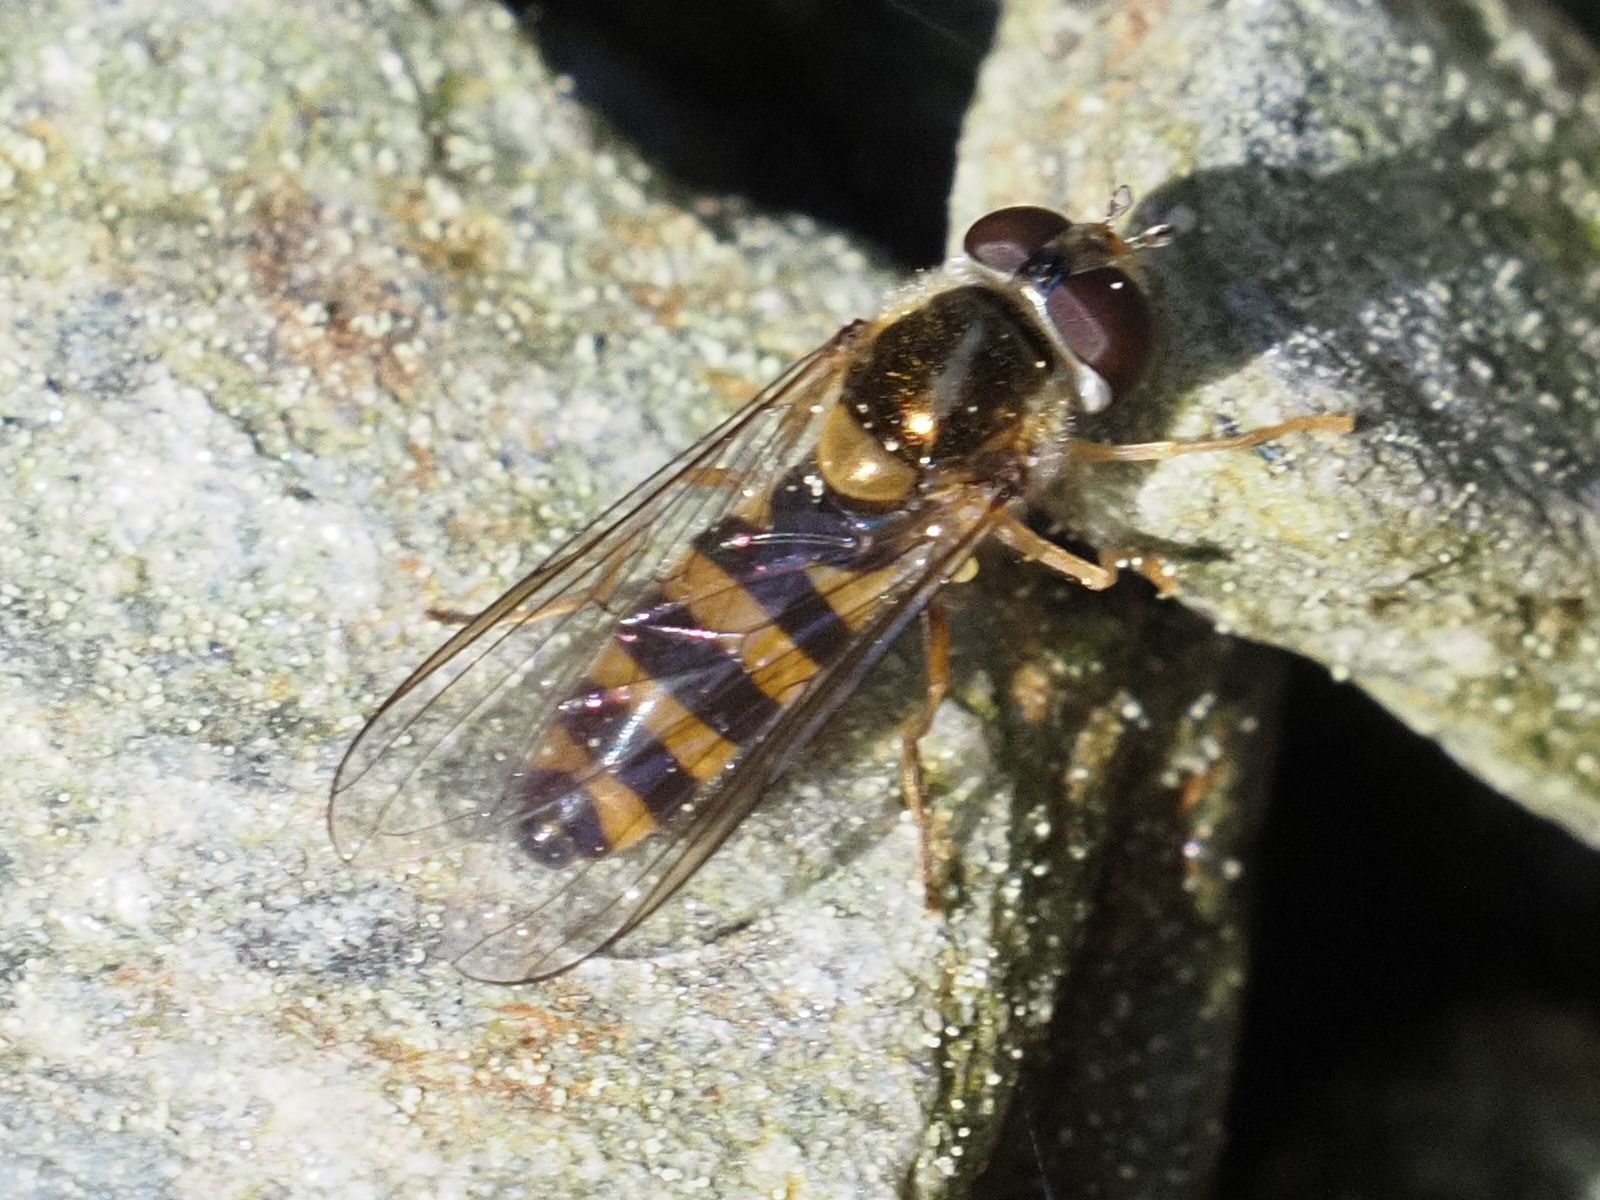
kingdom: Animalia
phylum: Arthropoda
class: Insecta
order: Diptera
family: Syrphidae
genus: Fagisyrphus
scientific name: Fagisyrphus cincta
